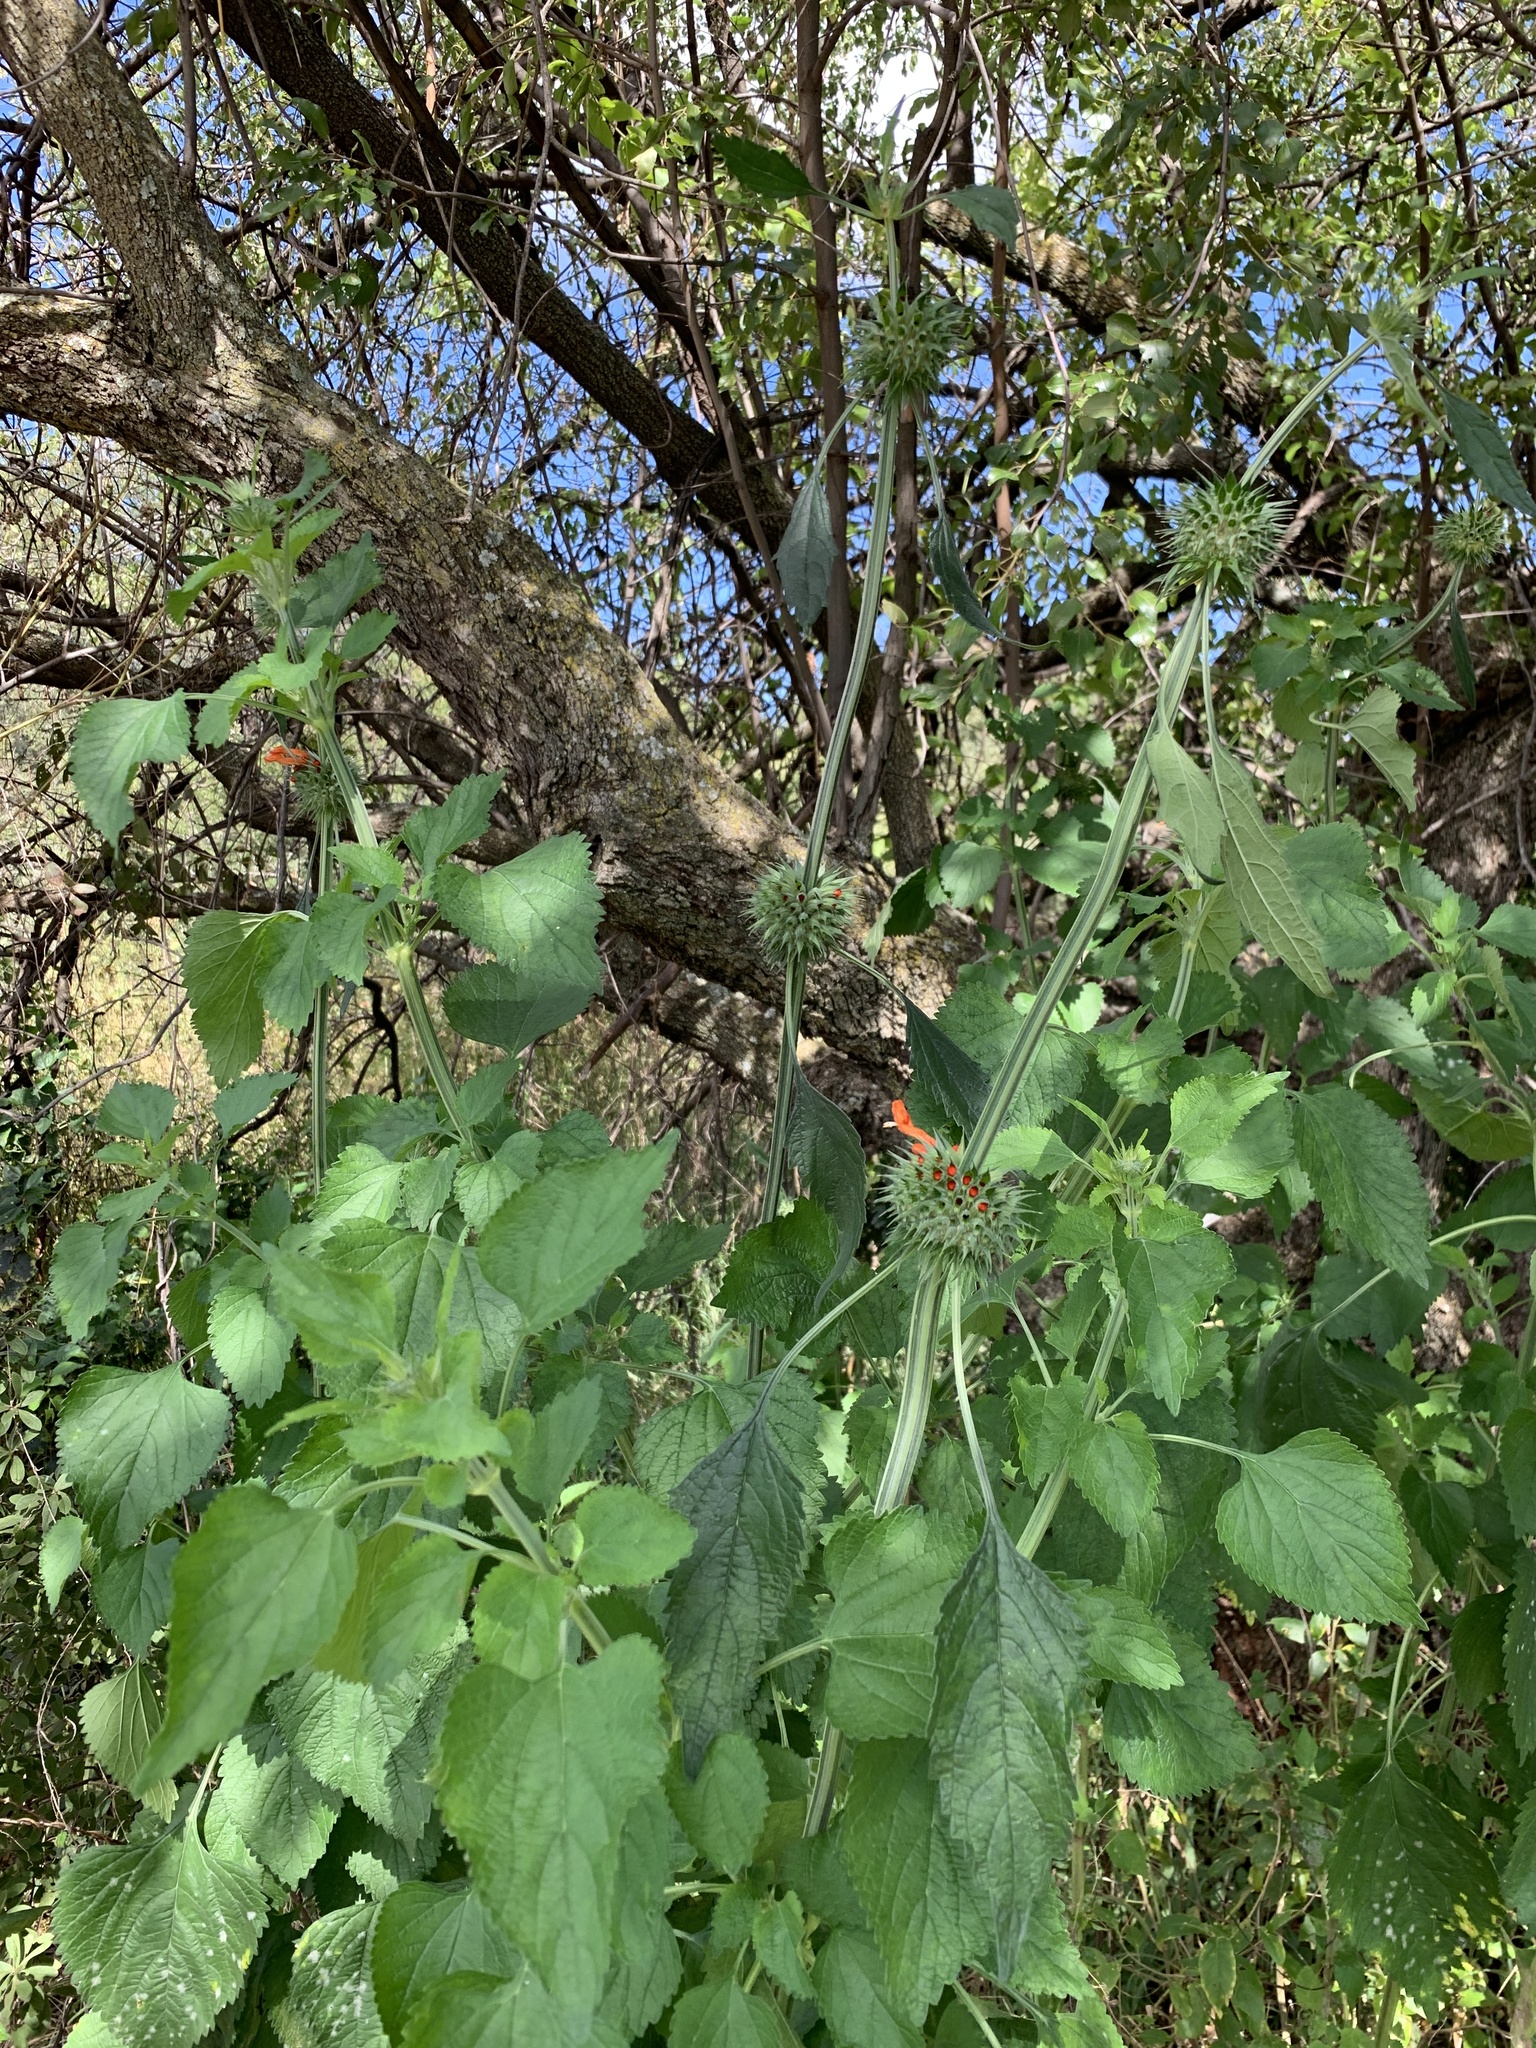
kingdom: Plantae
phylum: Tracheophyta
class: Magnoliopsida
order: Lamiales
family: Lamiaceae
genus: Leonotis
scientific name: Leonotis leonurus
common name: Lion's ear
